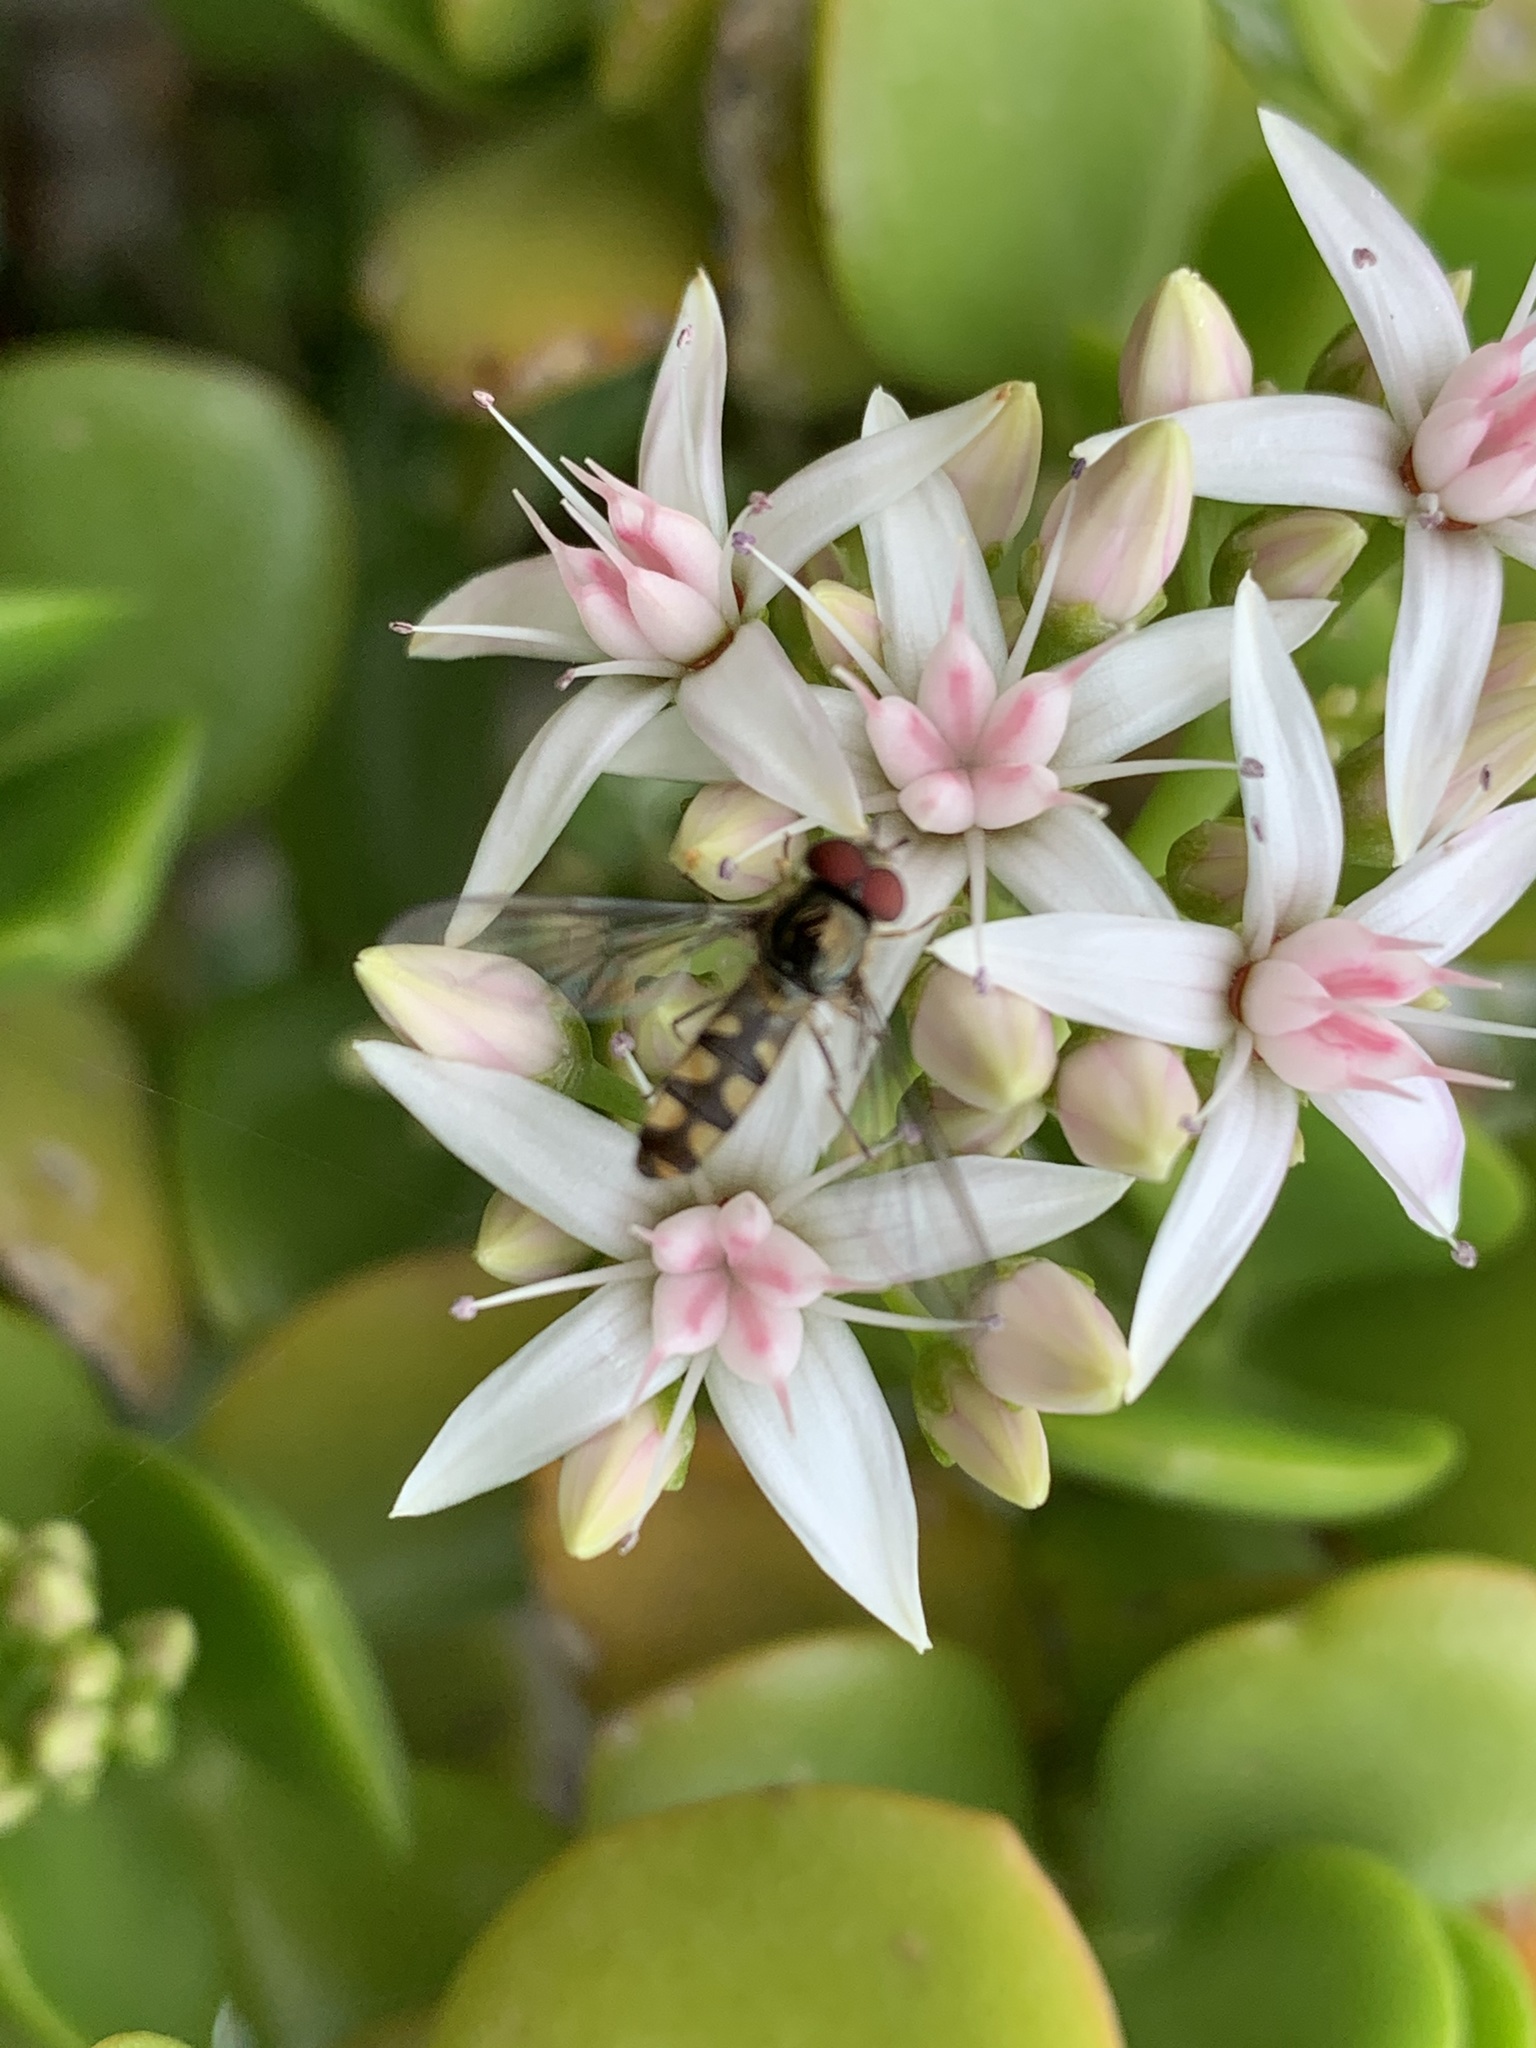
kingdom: Animalia
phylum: Arthropoda
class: Insecta
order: Diptera
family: Syrphidae
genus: Meliscaeva
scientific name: Meliscaeva auricollis
